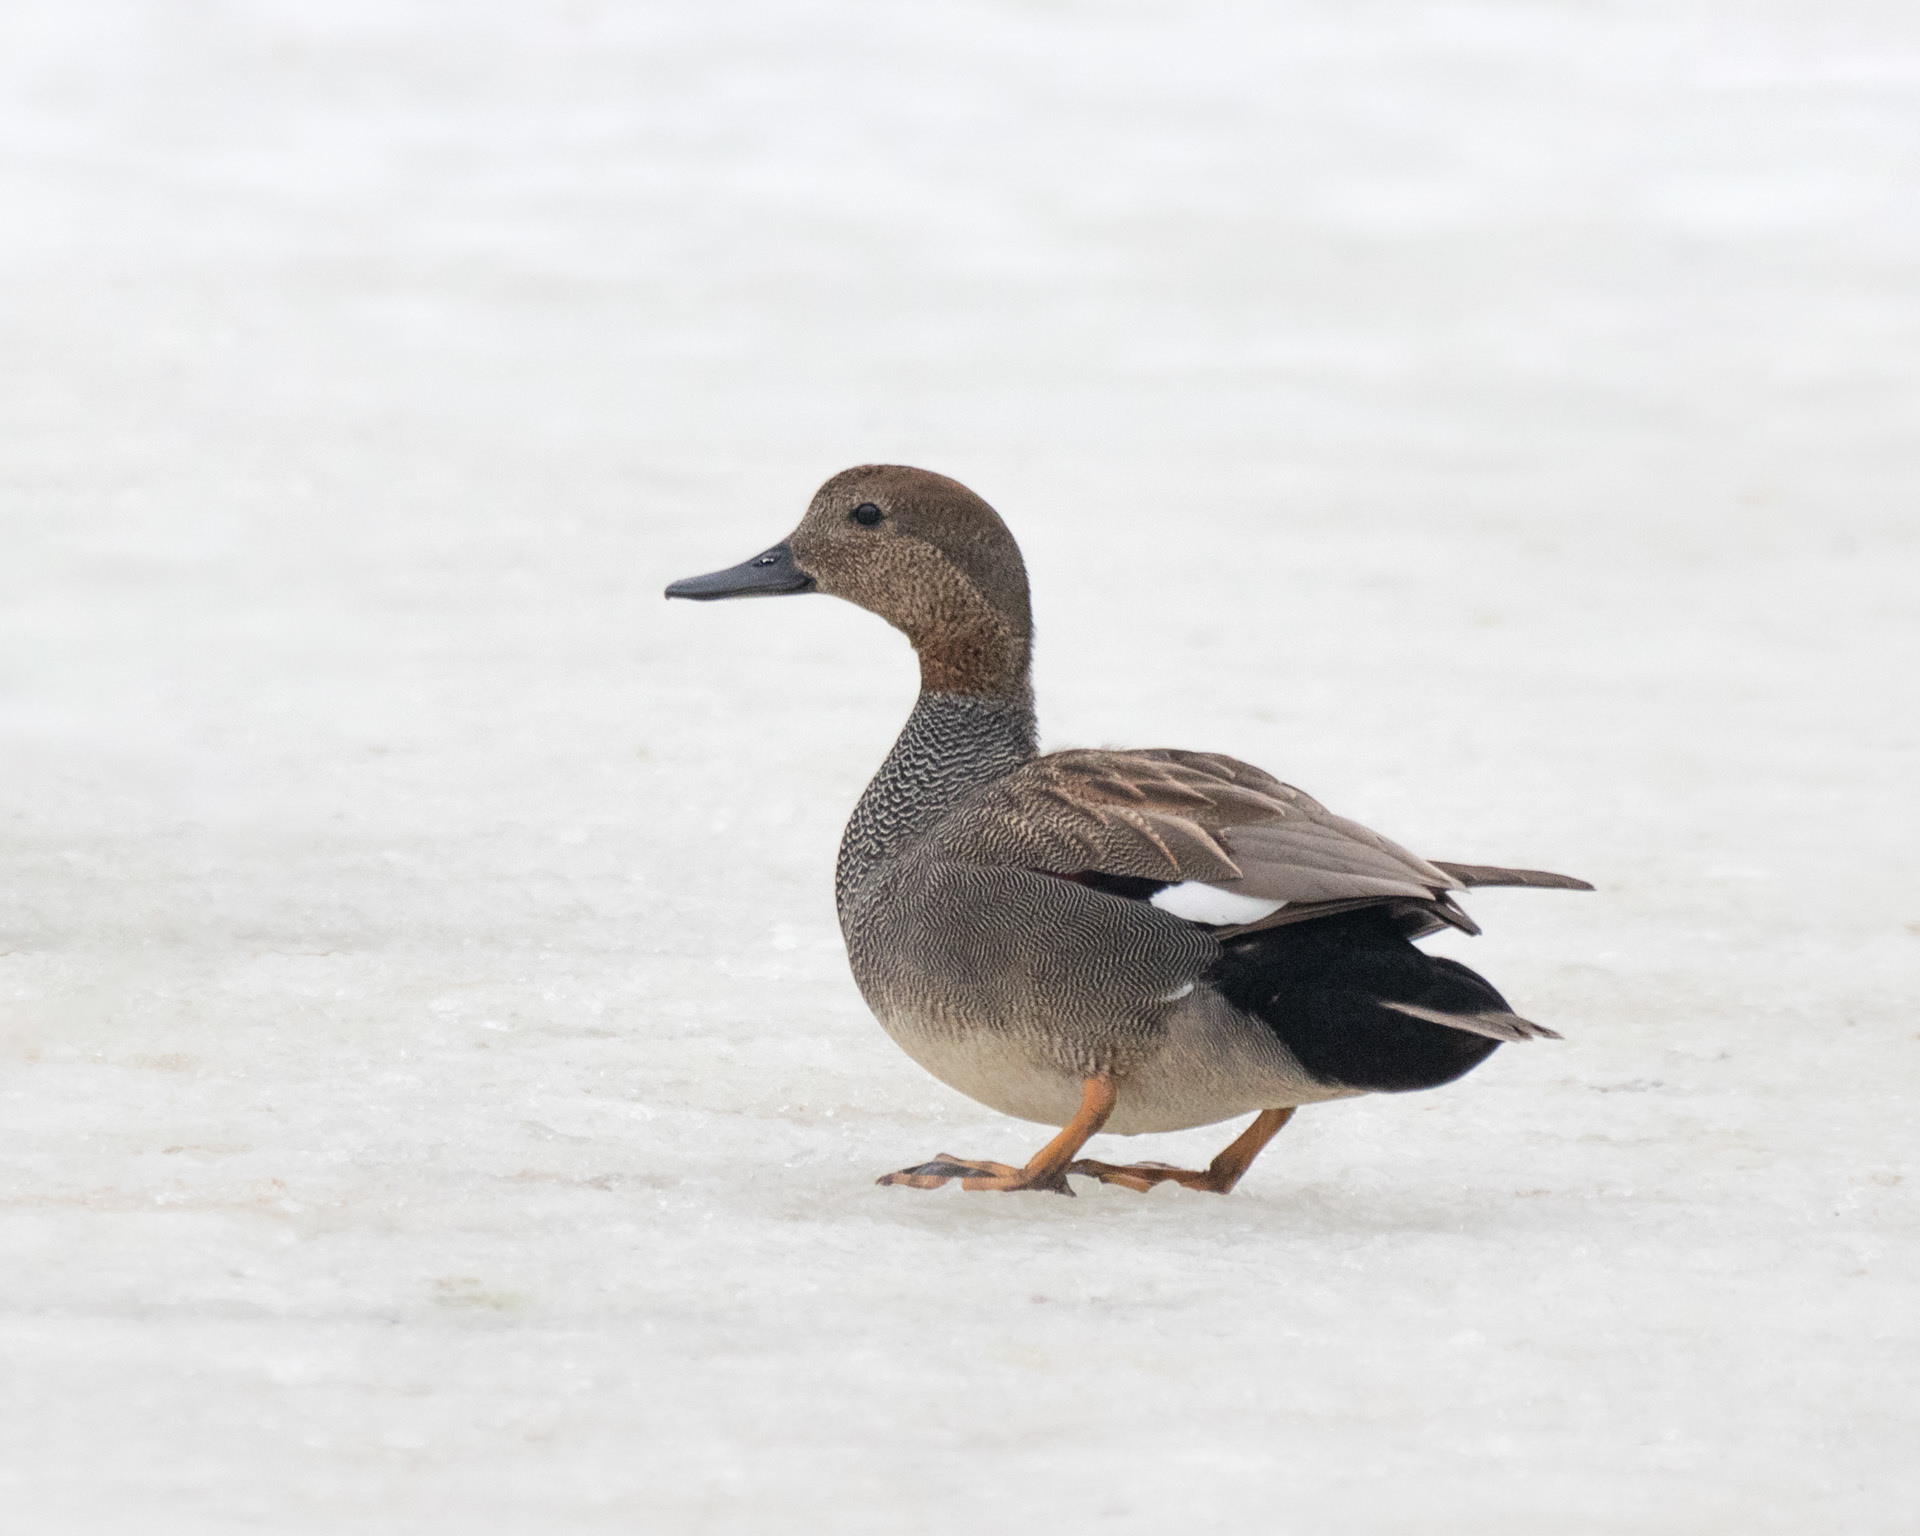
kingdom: Animalia
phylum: Chordata
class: Aves
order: Anseriformes
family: Anatidae
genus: Mareca
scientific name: Mareca strepera
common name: Gadwall
